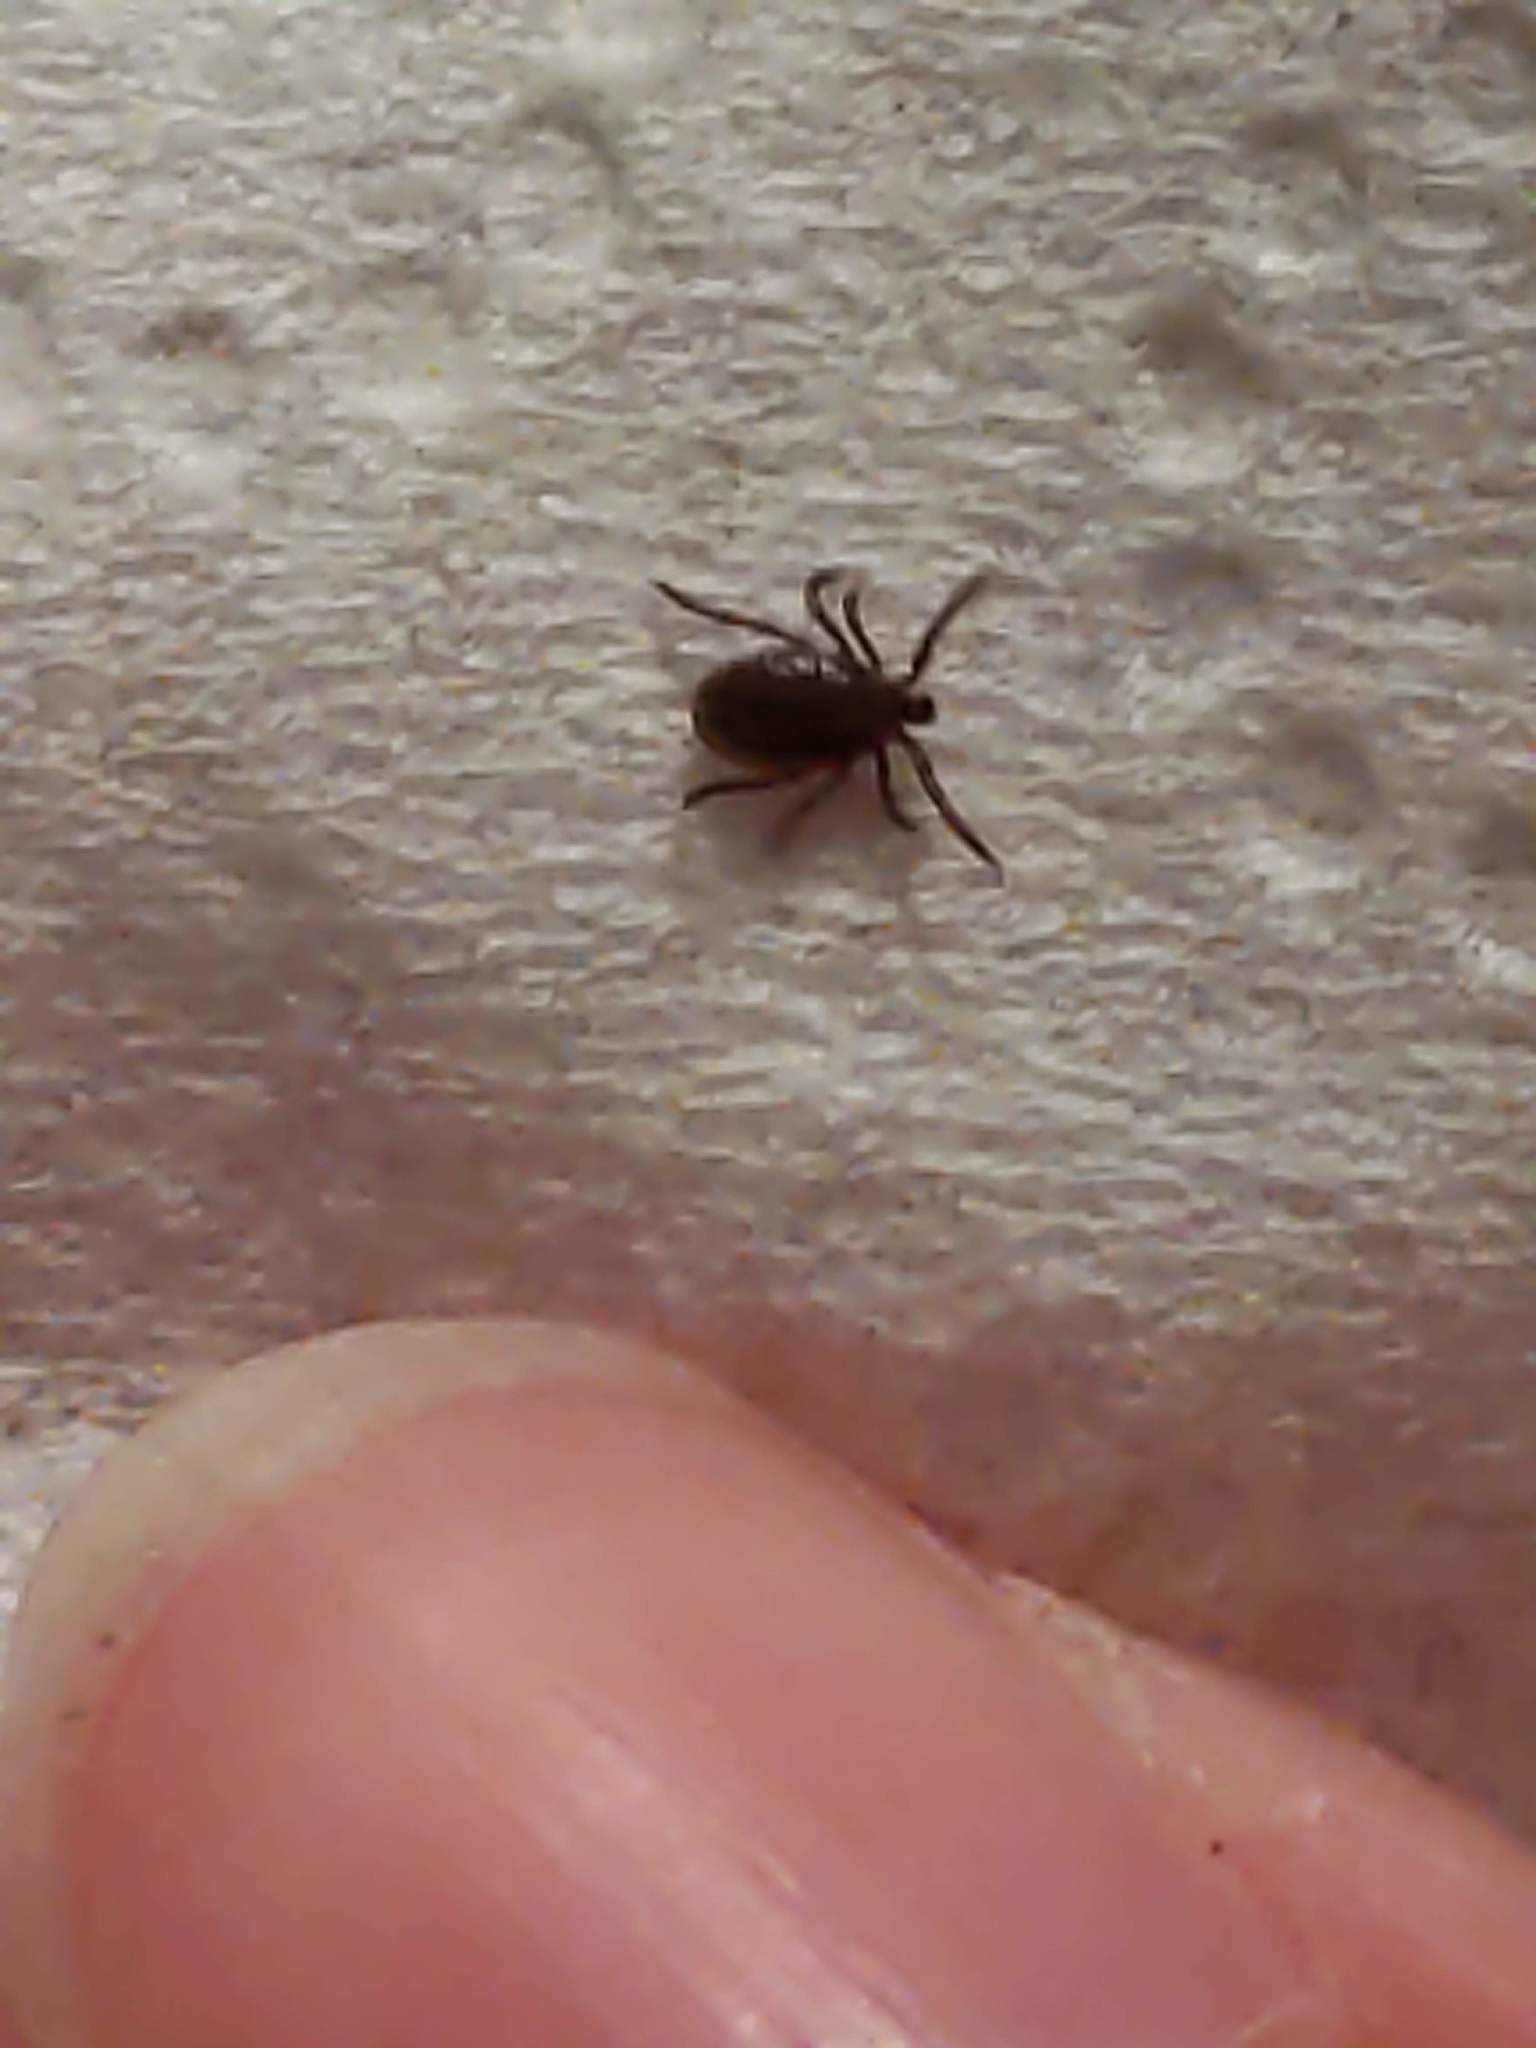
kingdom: Animalia
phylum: Arthropoda
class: Arachnida
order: Ixodida
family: Ixodidae
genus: Ixodes
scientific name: Ixodes scapularis
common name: Black legged tick
